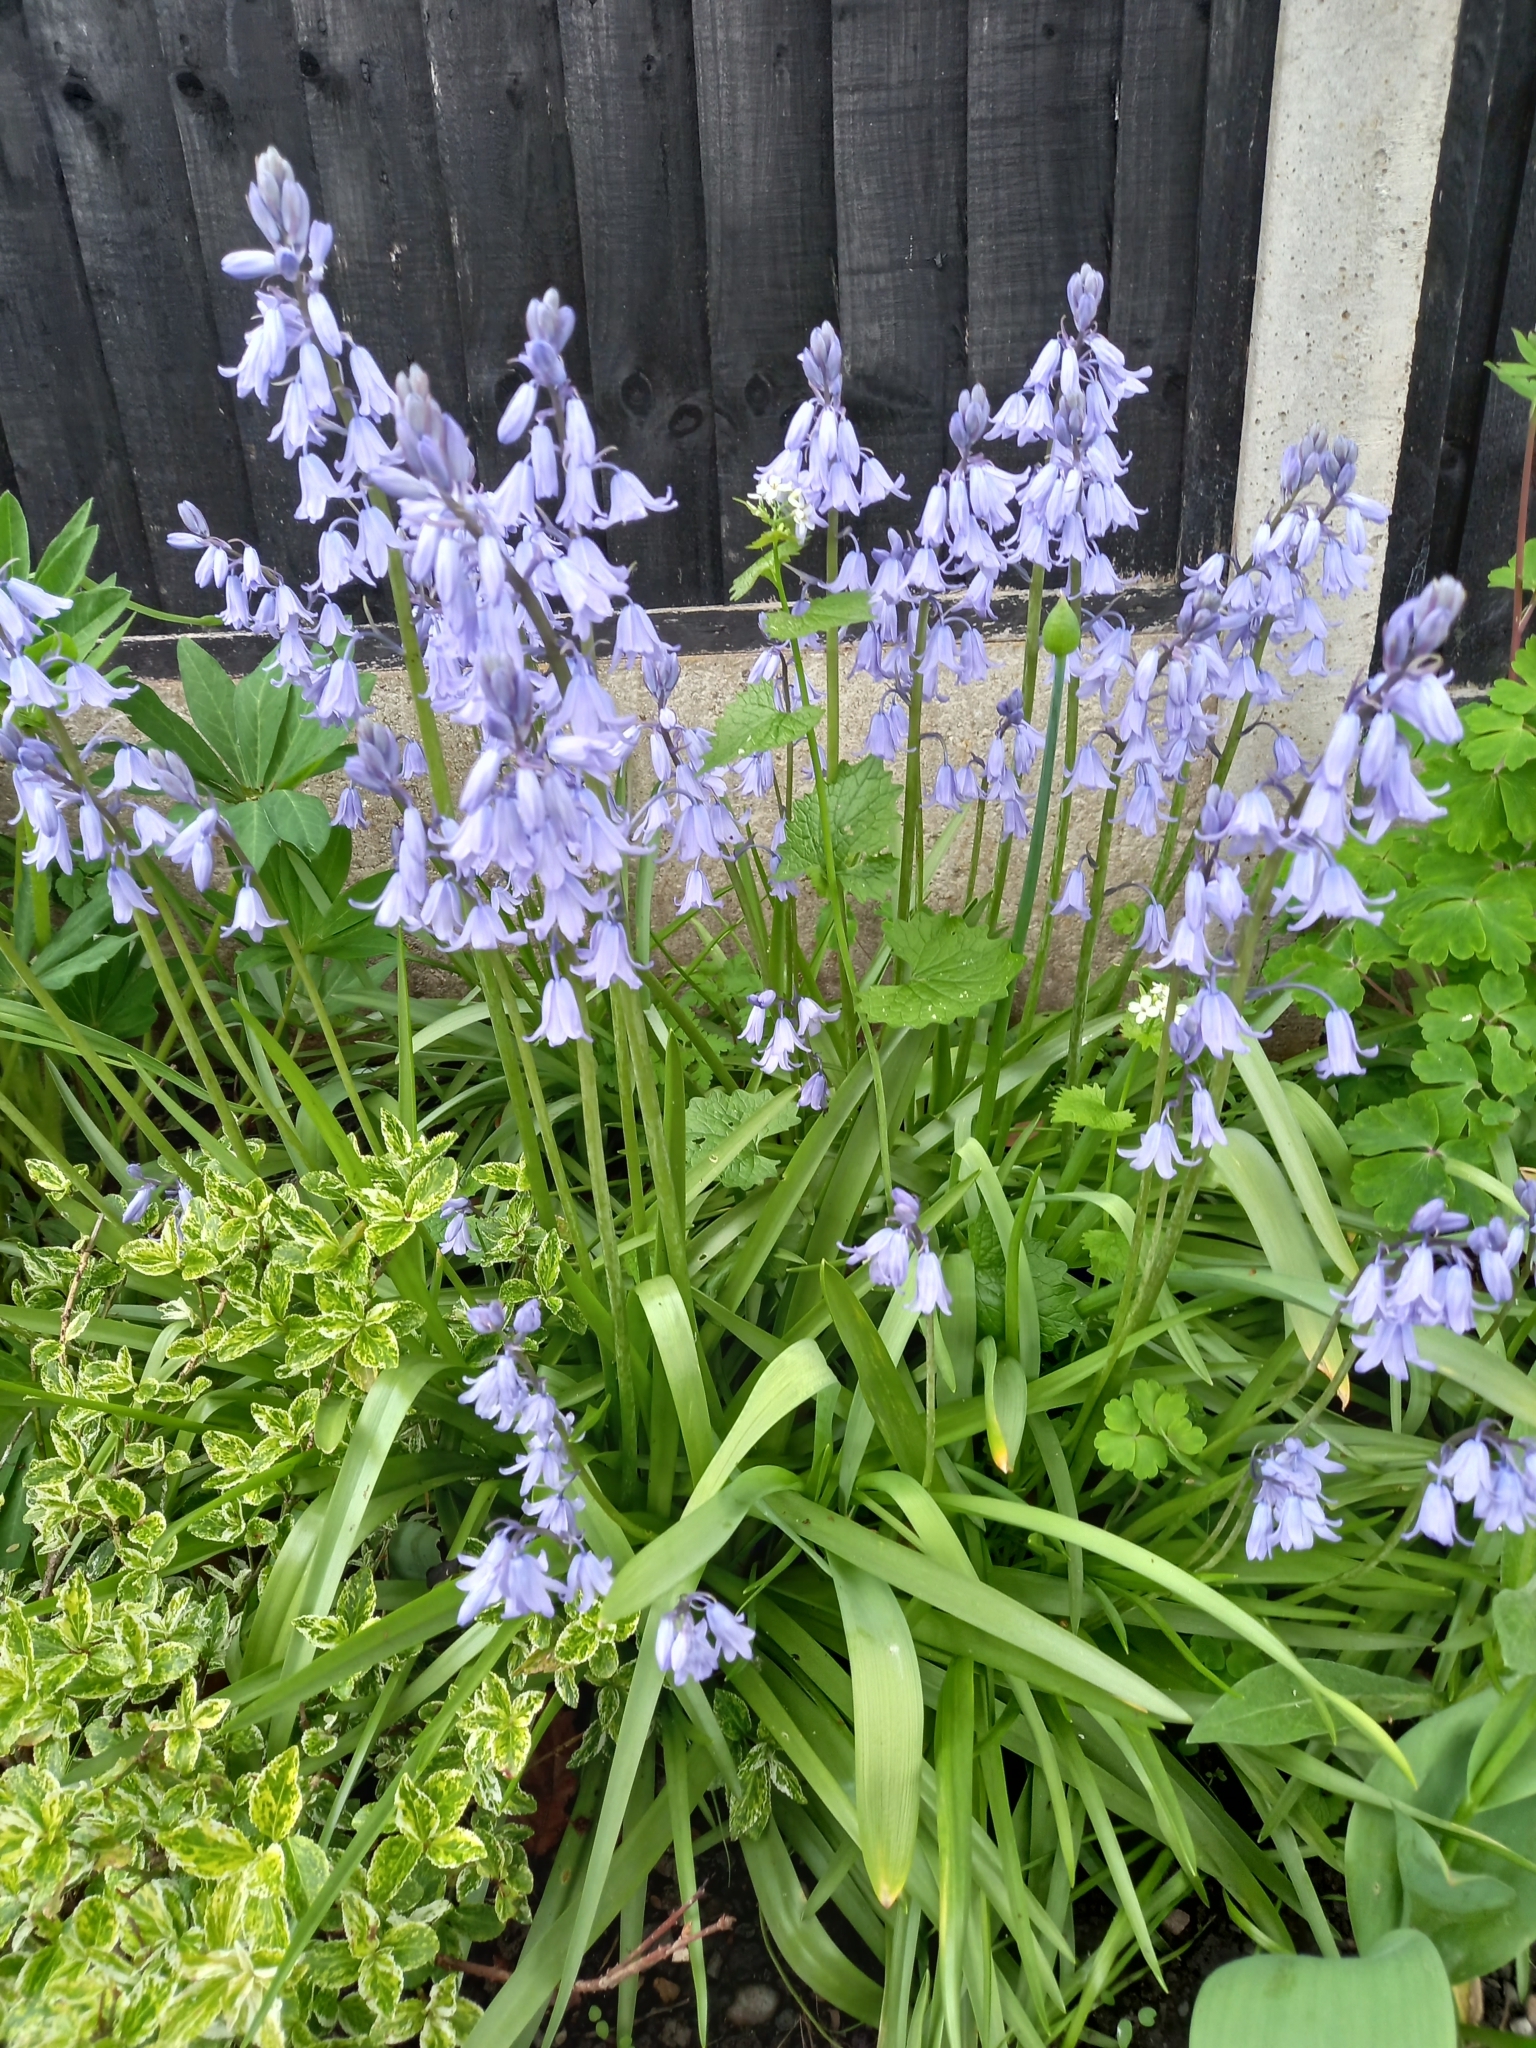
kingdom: Plantae
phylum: Tracheophyta
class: Liliopsida
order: Asparagales
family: Asparagaceae
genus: Hyacinthoides
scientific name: Hyacinthoides hispanica
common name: Spanish bluebell
